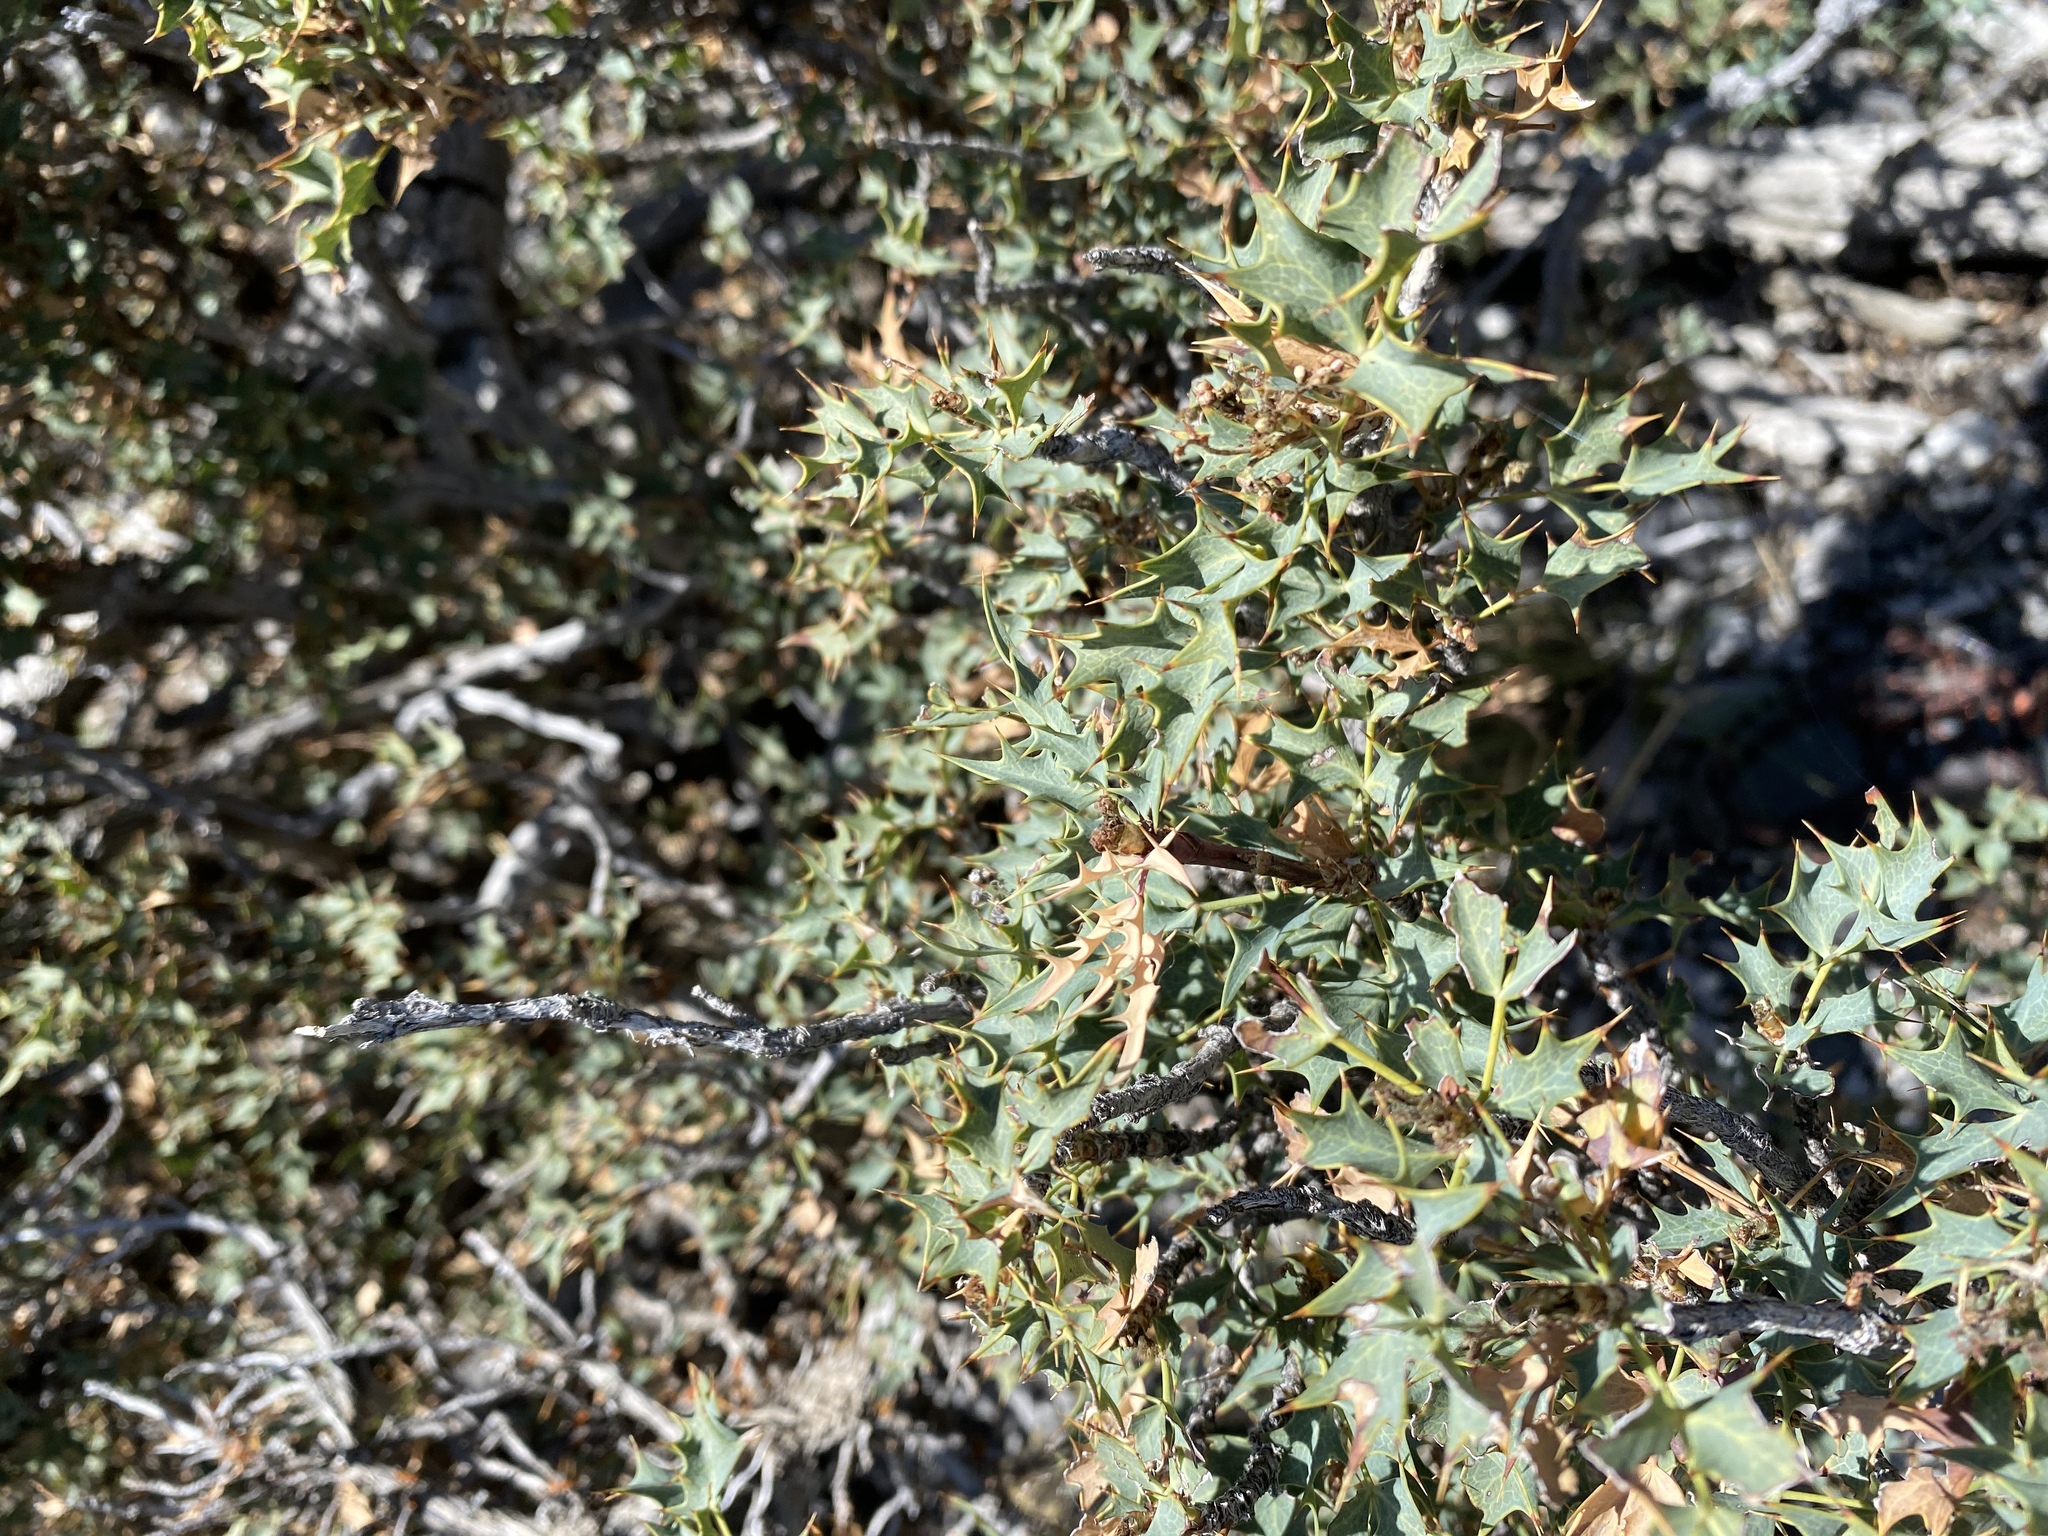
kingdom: Plantae
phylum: Tracheophyta
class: Magnoliopsida
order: Ranunculales
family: Berberidaceae
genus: Alloberberis
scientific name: Alloberberis fremontii
